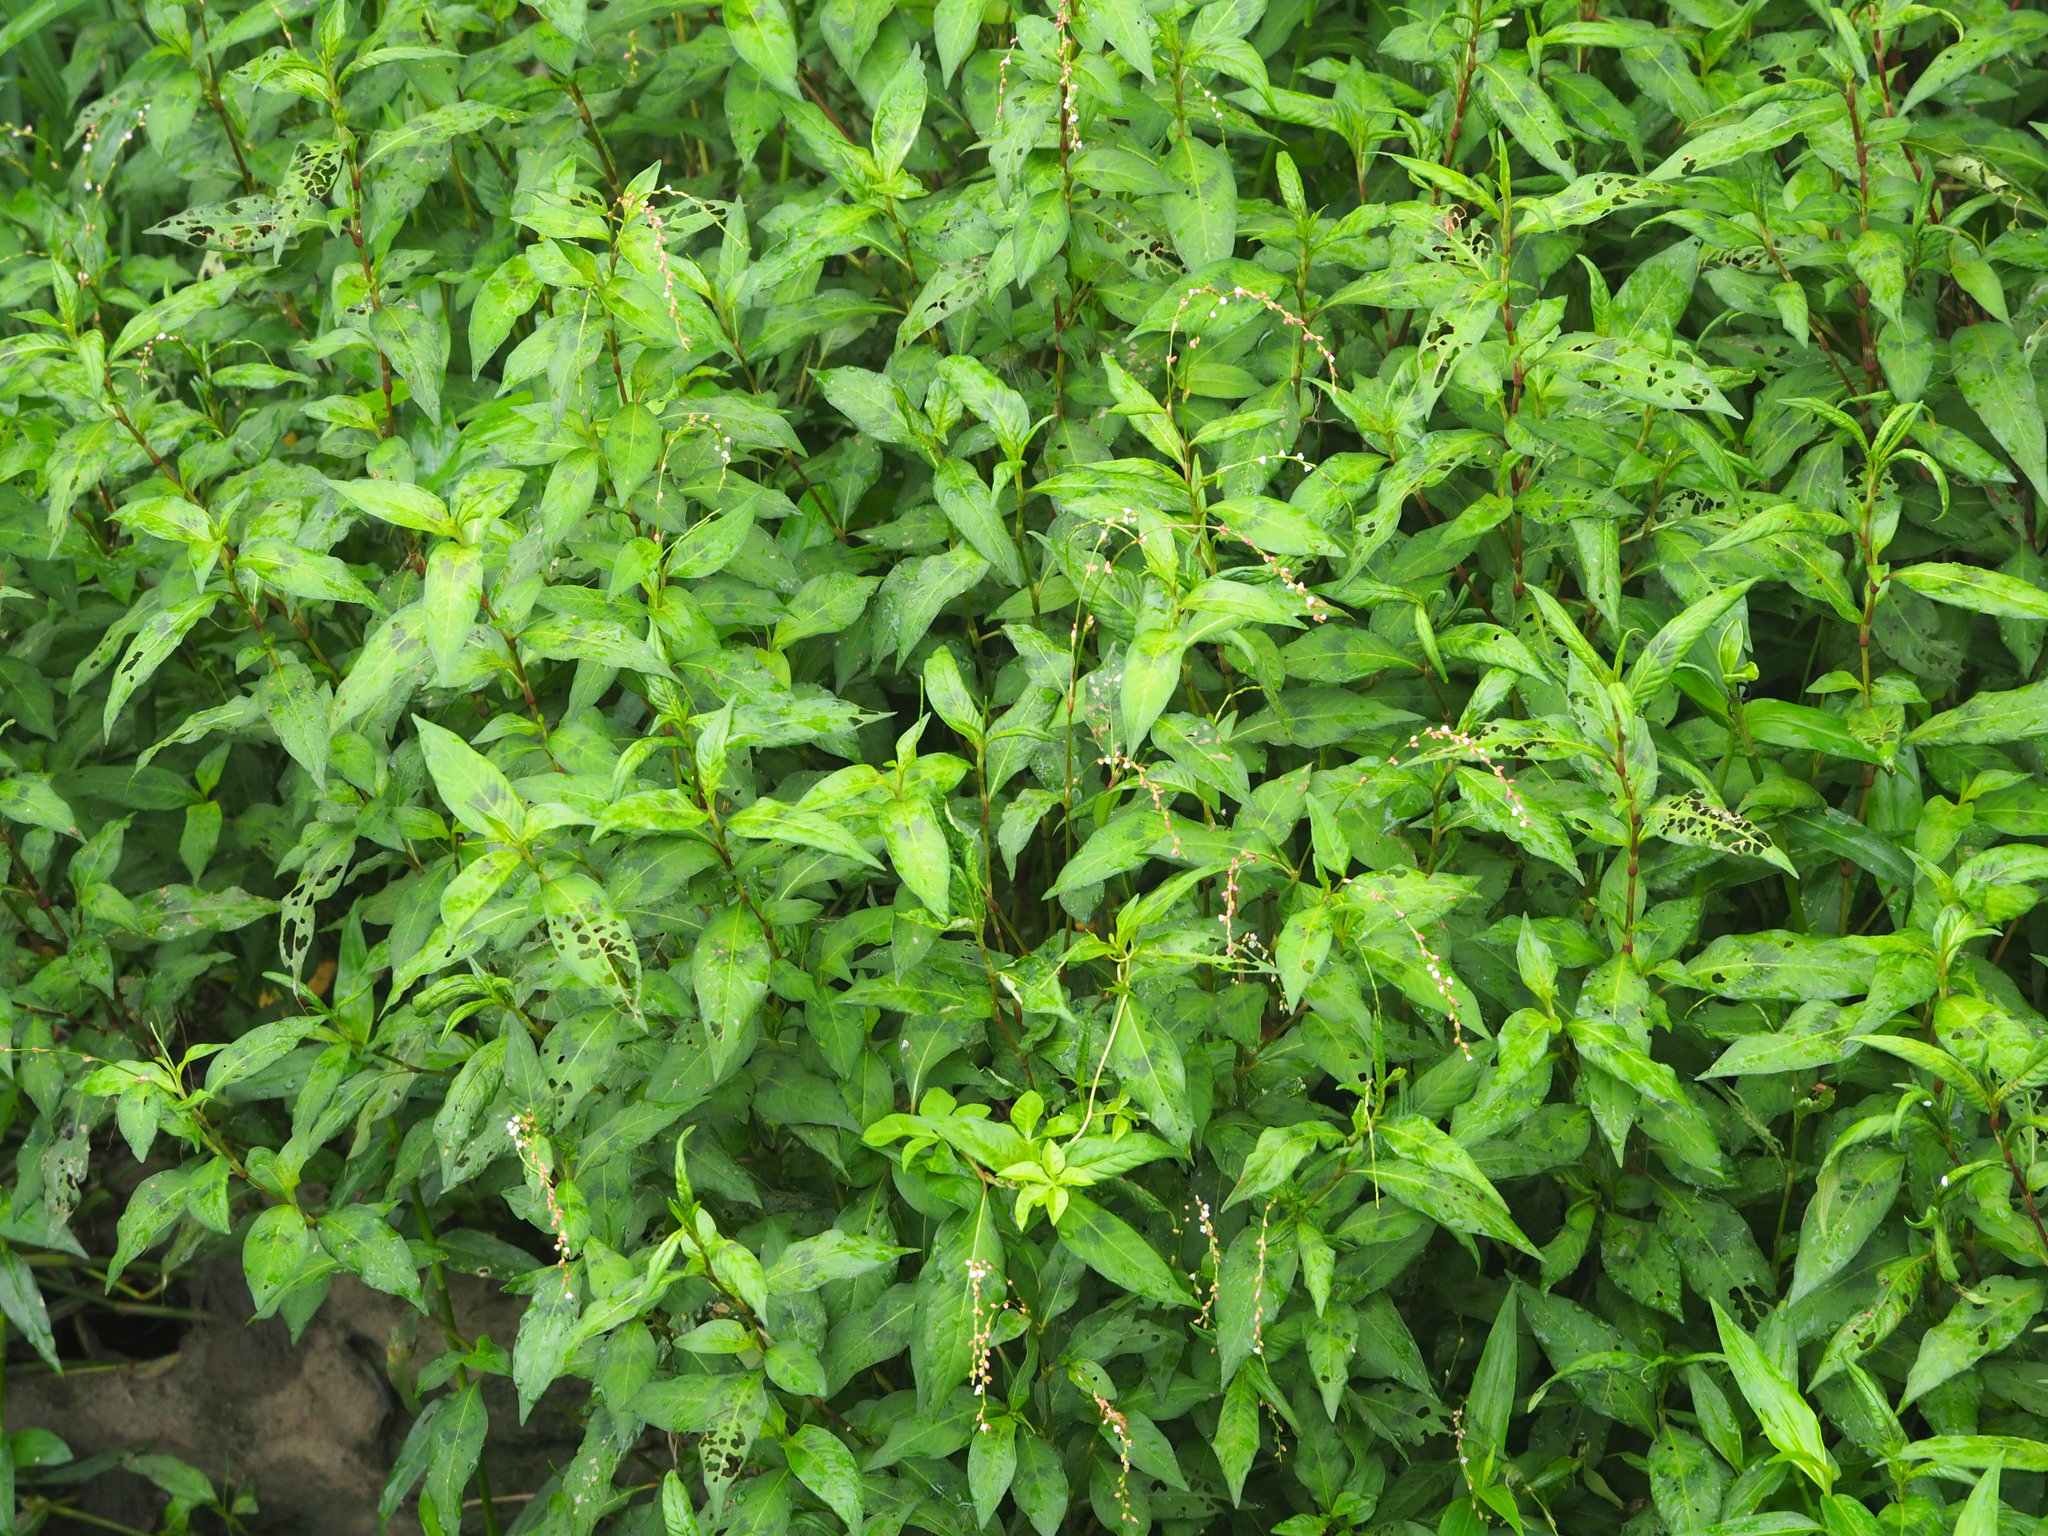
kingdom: Plantae
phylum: Tracheophyta
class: Magnoliopsida
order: Caryophyllales
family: Polygonaceae
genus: Persicaria
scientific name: Persicaria pubescens
